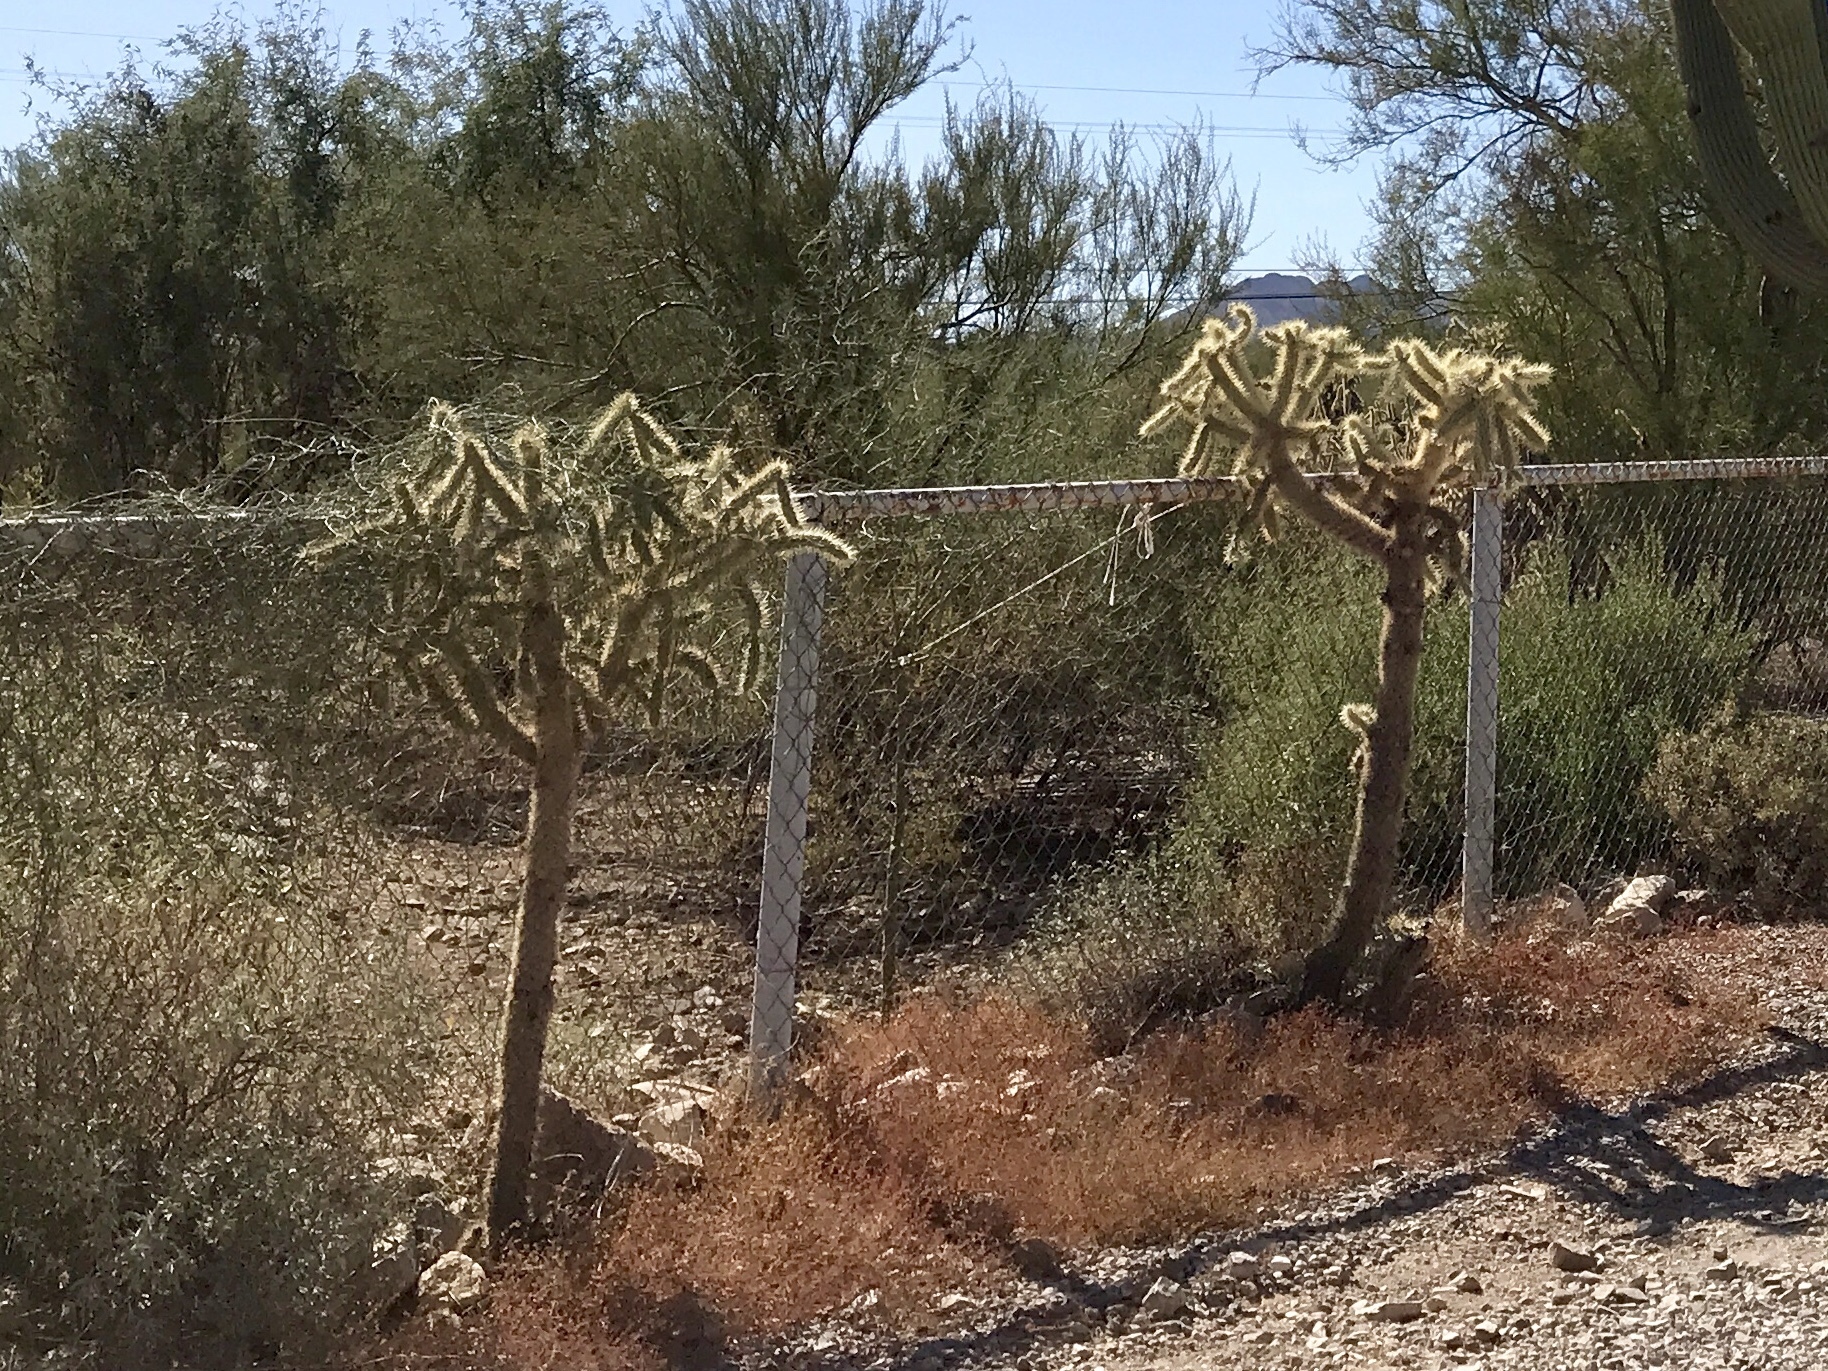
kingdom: Plantae
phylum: Tracheophyta
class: Magnoliopsida
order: Caryophyllales
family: Cactaceae
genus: Cylindropuntia
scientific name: Cylindropuntia imbricata
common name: Candelabrum cactus
